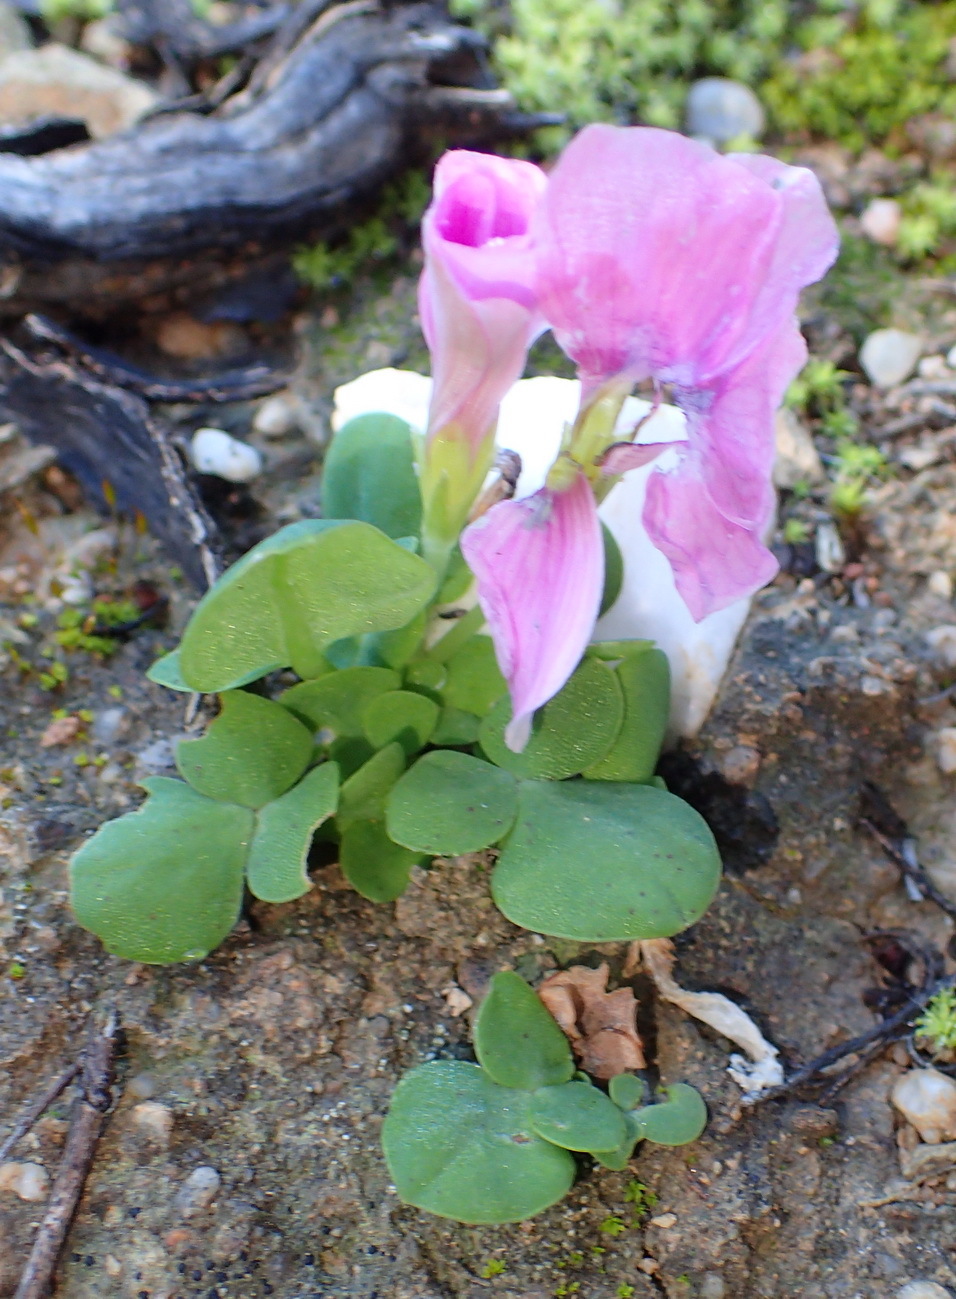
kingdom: Plantae
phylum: Tracheophyta
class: Magnoliopsida
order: Oxalidales
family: Oxalidaceae
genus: Oxalis
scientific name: Oxalis depressa
